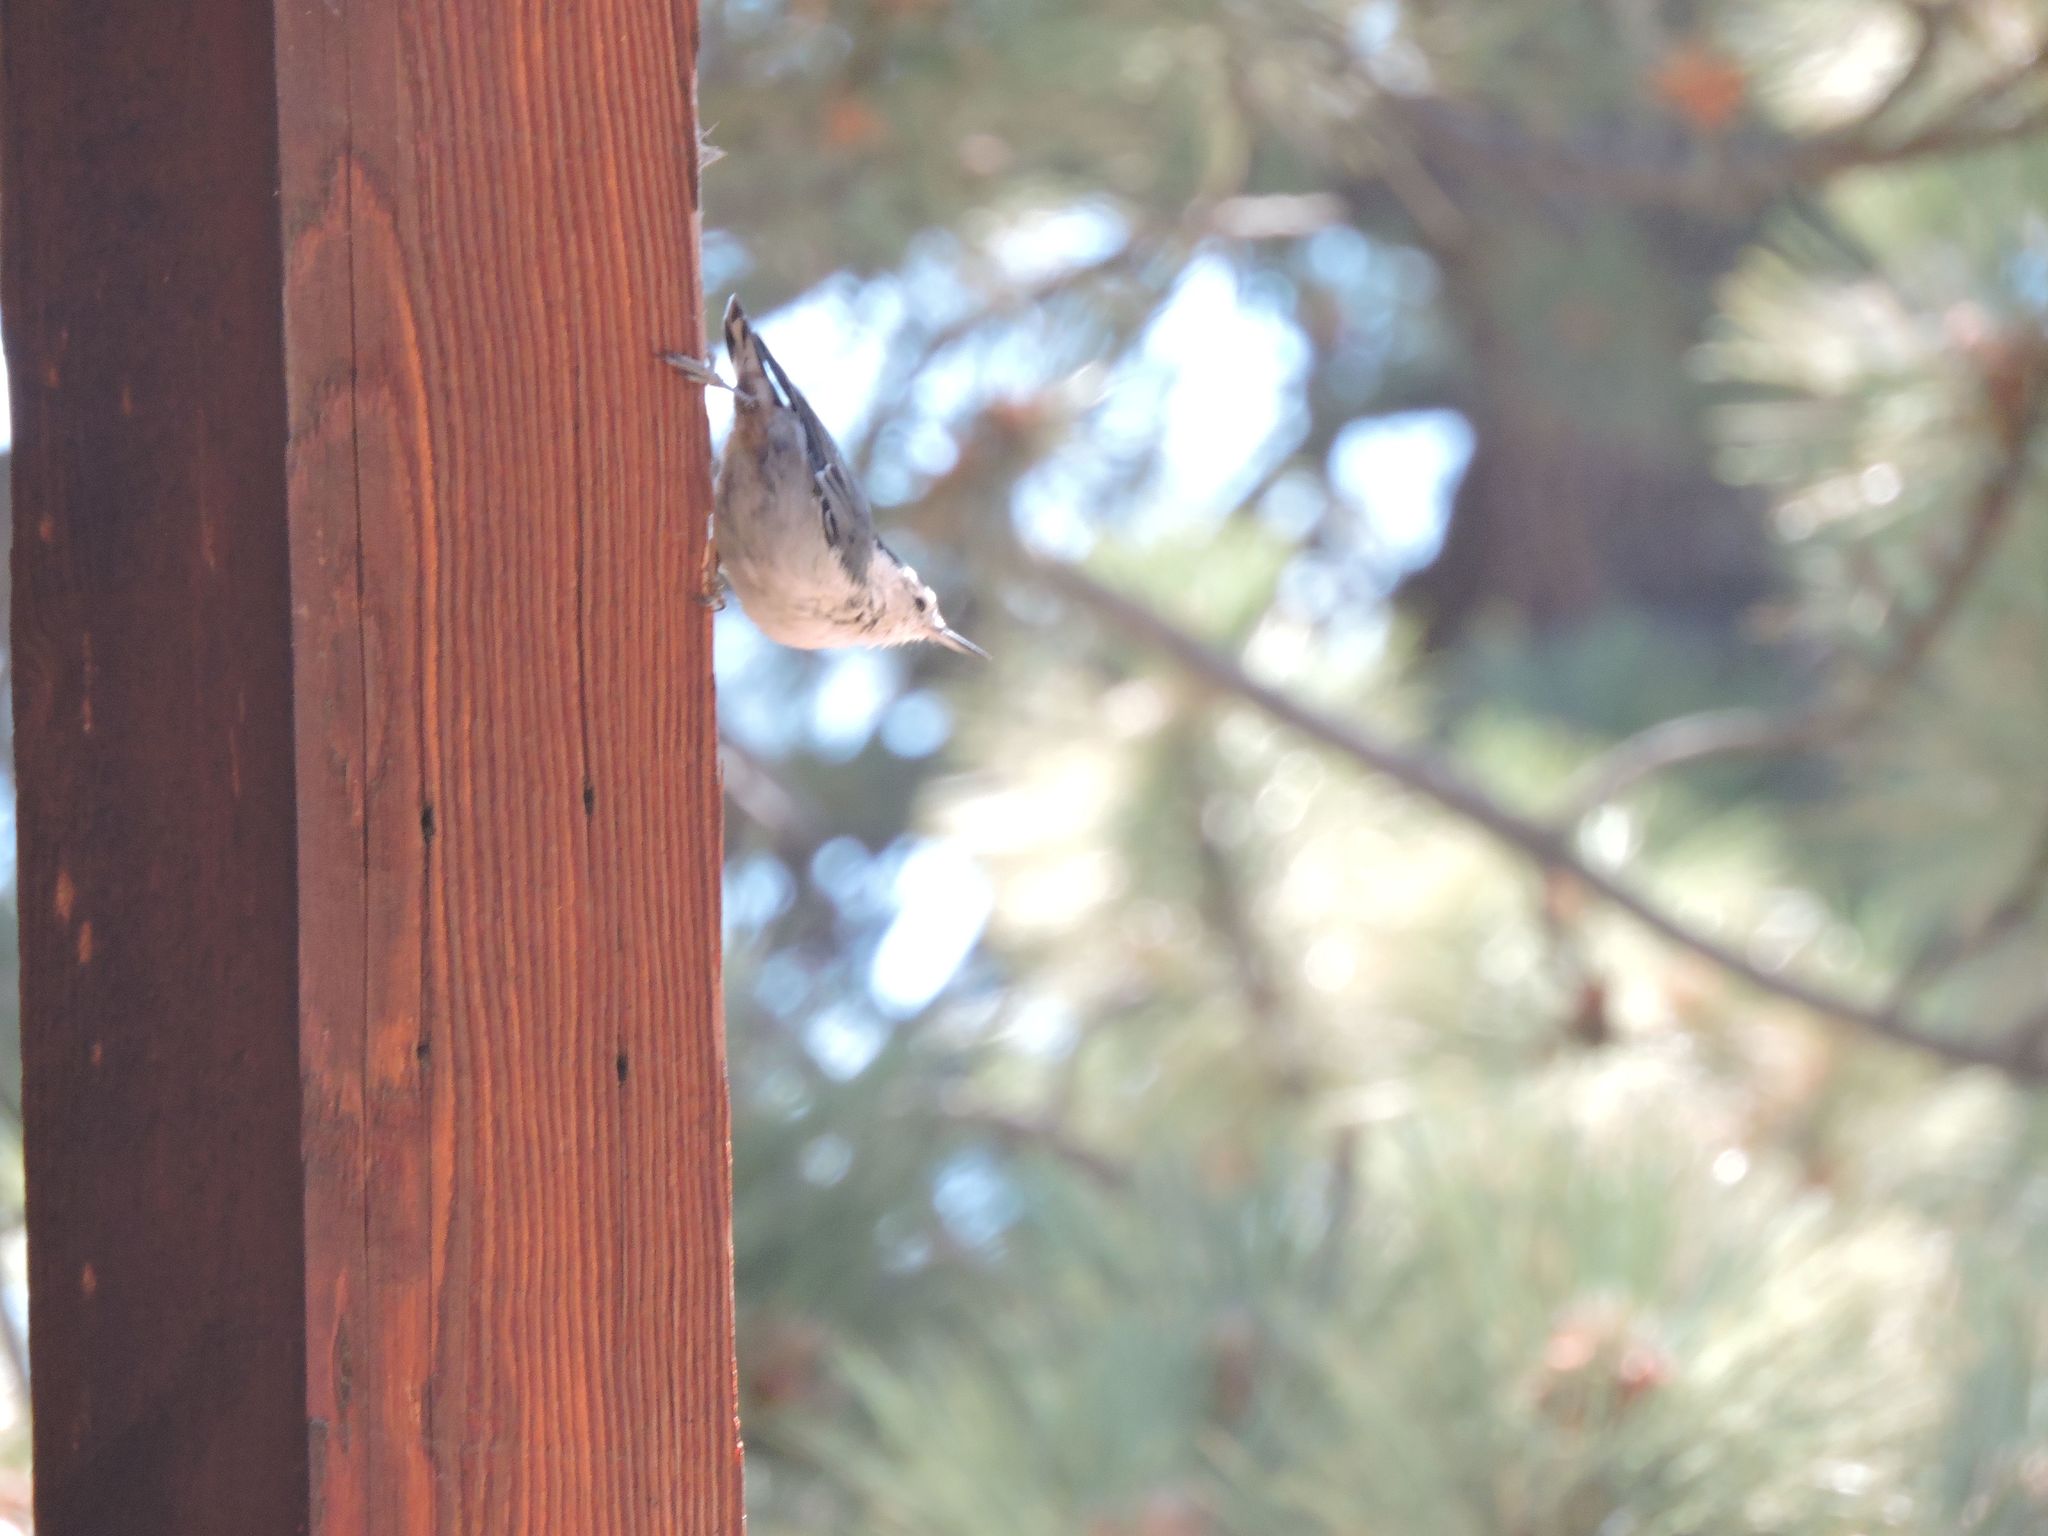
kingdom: Animalia
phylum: Chordata
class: Aves
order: Passeriformes
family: Sittidae
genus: Sitta
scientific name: Sitta carolinensis
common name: White-breasted nuthatch
